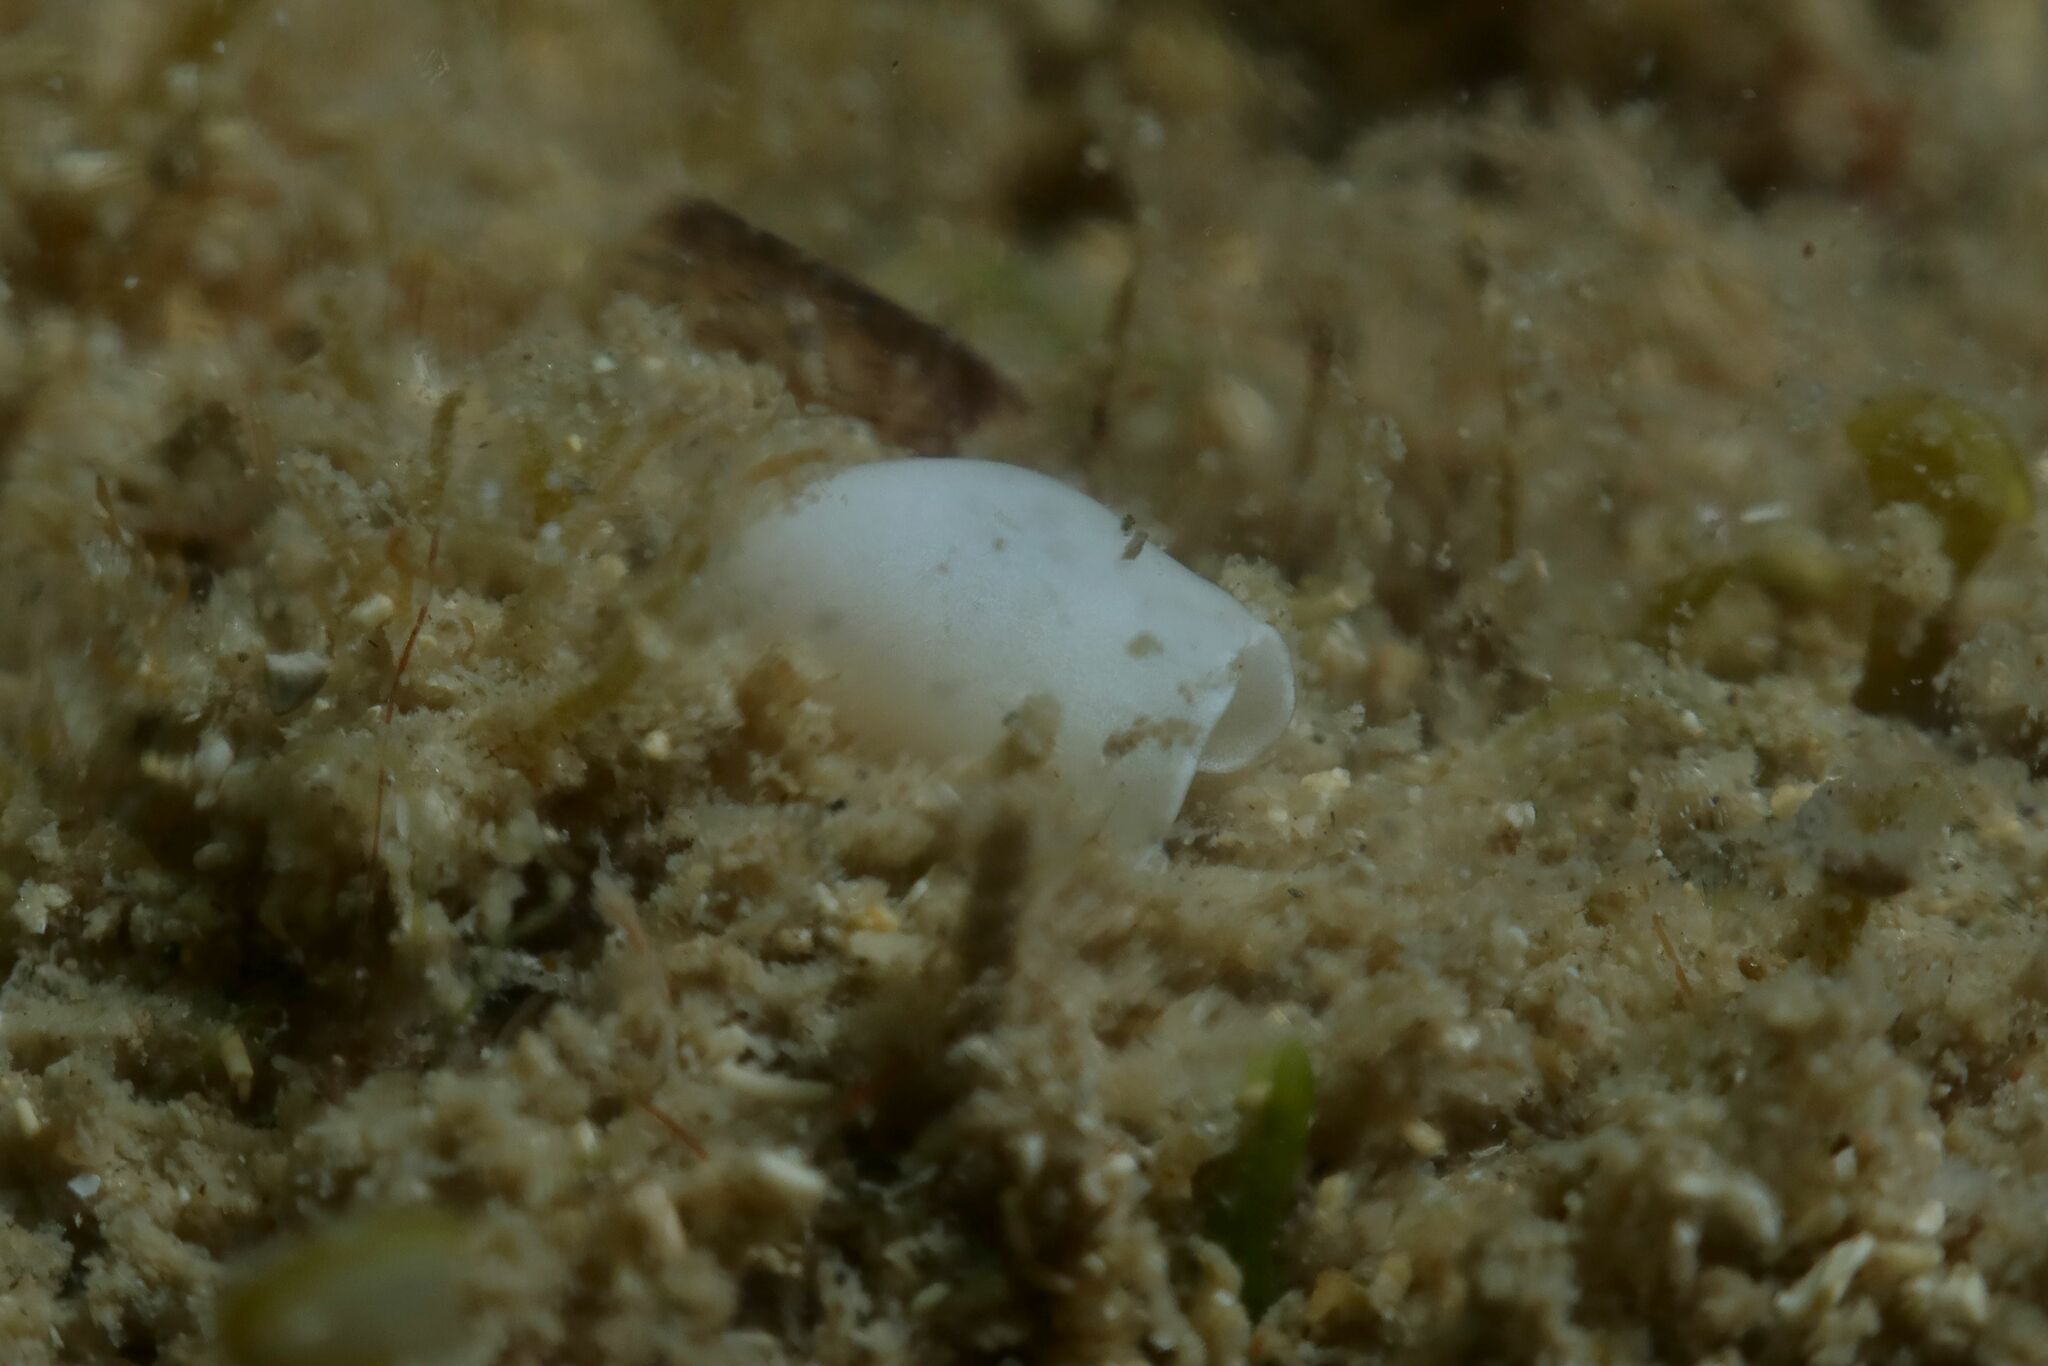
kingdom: Animalia
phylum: Mollusca
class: Gastropoda
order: Cephalaspidea
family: Aglajidae
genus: Melanochlamys
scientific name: Melanochlamys miqueli
